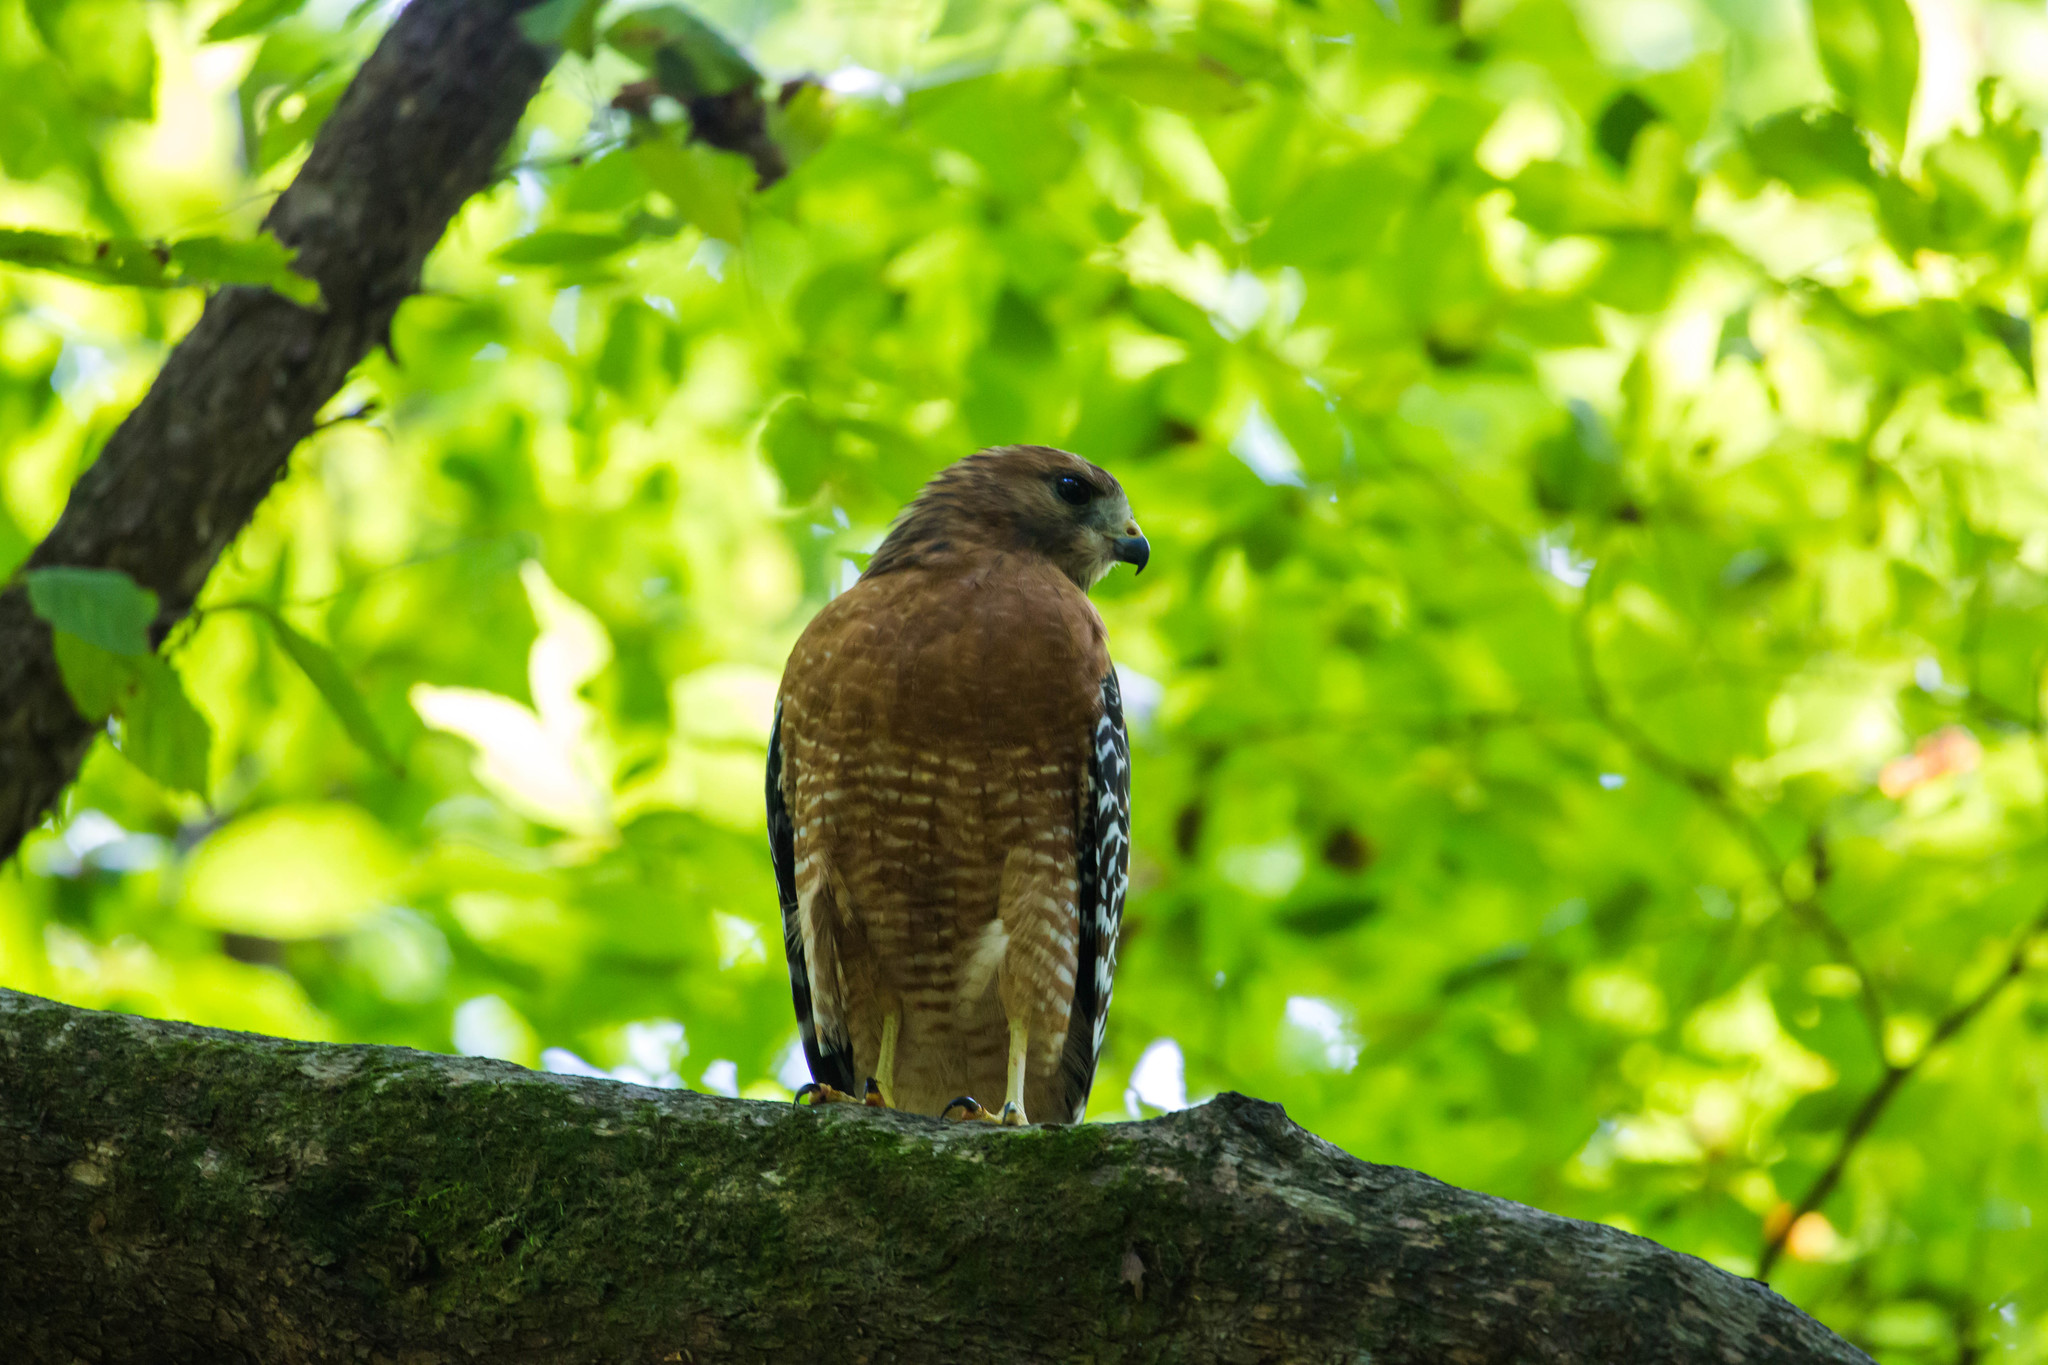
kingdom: Animalia
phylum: Chordata
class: Aves
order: Accipitriformes
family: Accipitridae
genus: Buteo
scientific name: Buteo lineatus
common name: Red-shouldered hawk
